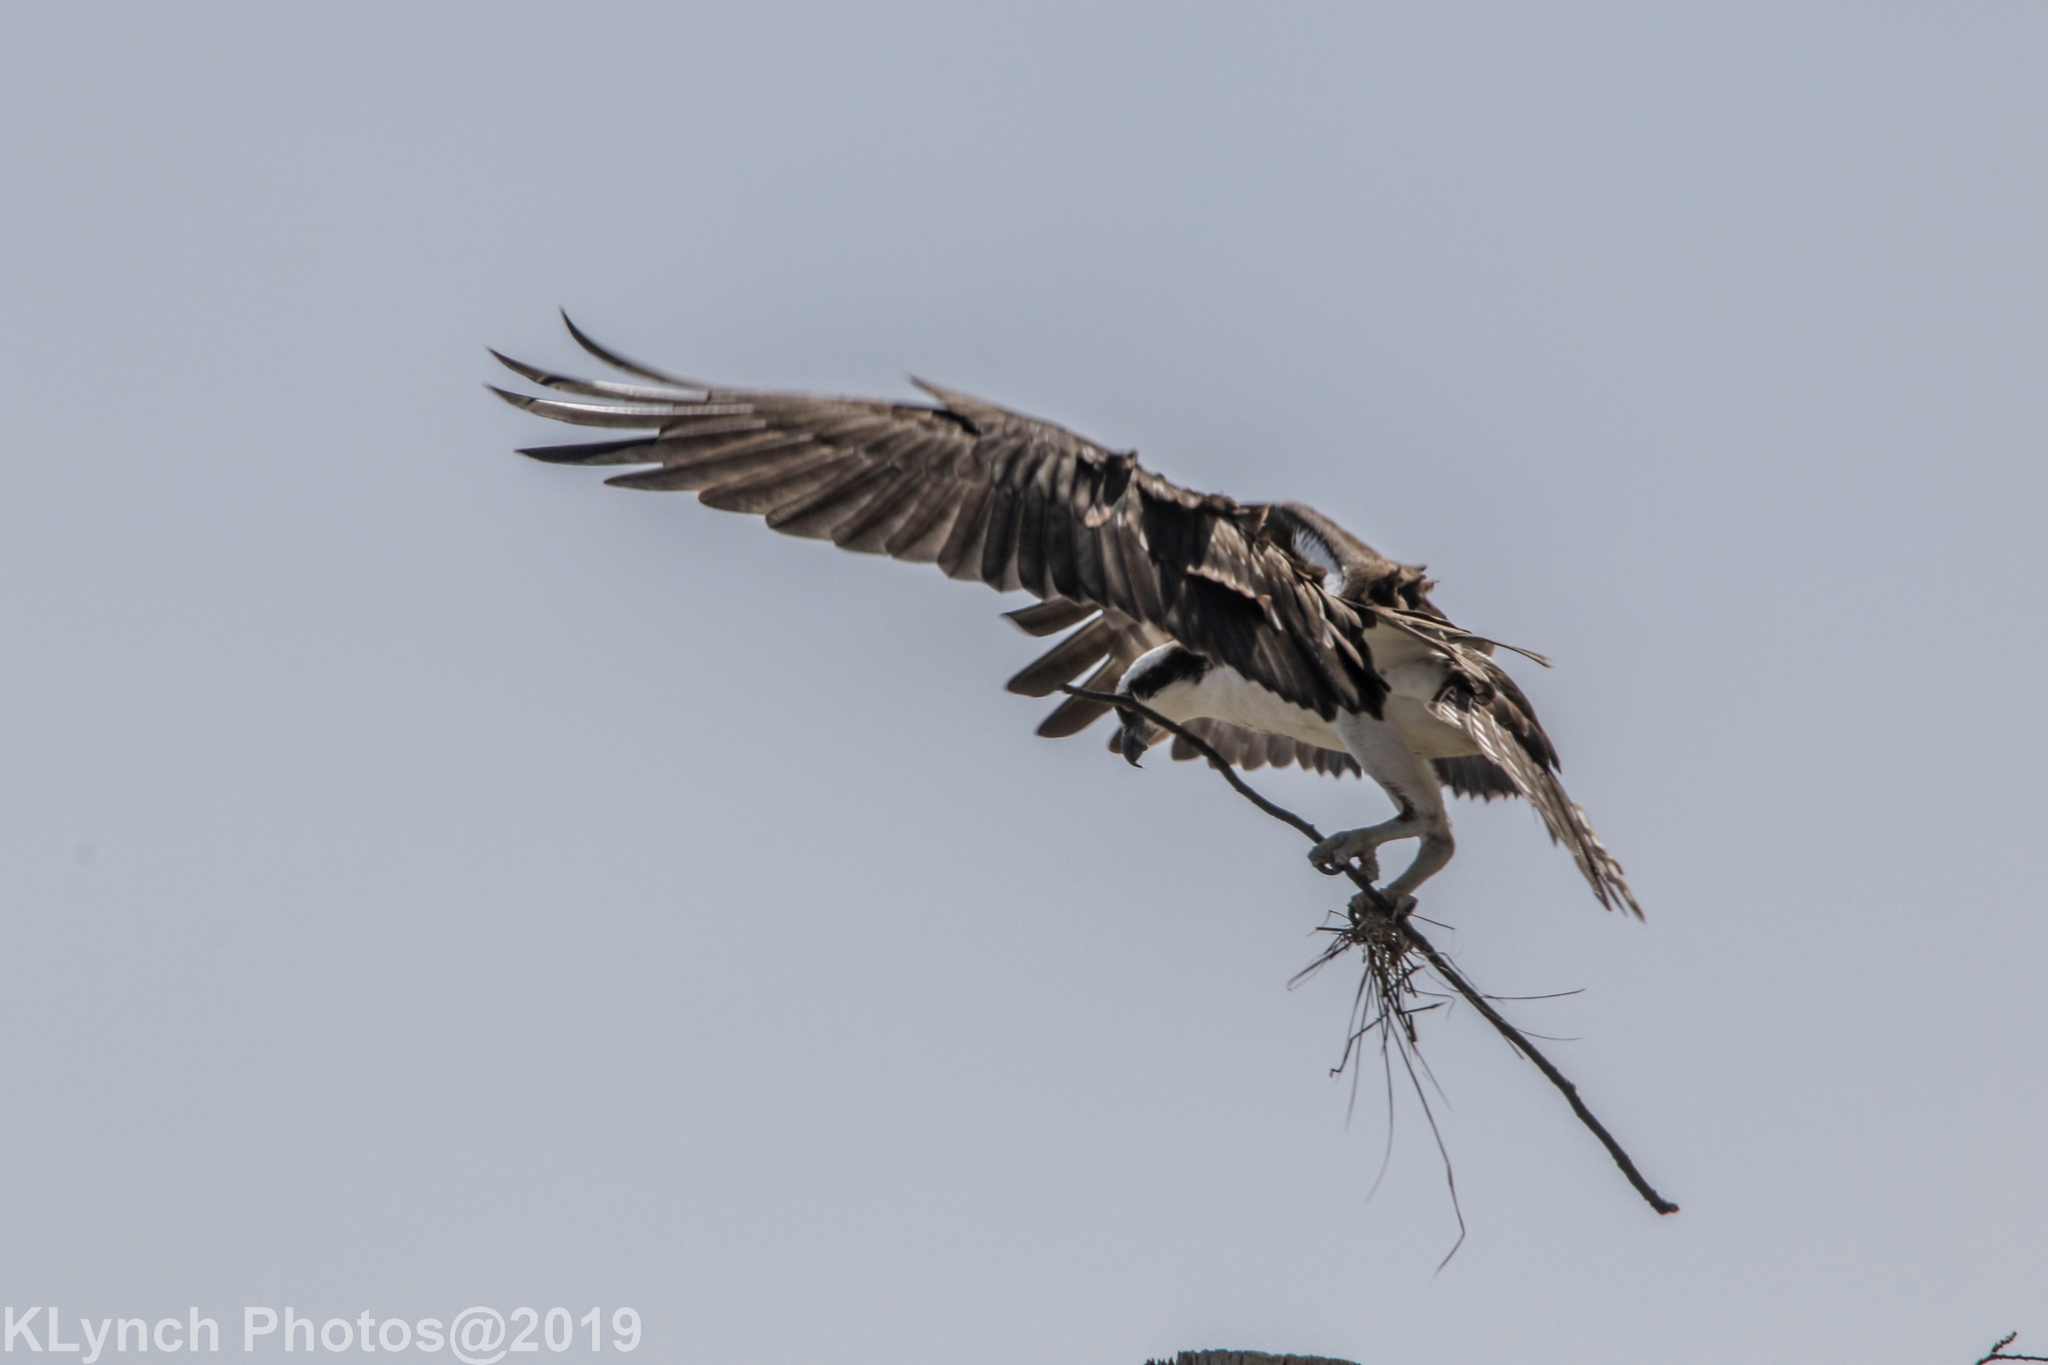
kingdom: Animalia
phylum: Chordata
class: Aves
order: Accipitriformes
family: Pandionidae
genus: Pandion
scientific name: Pandion haliaetus
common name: Osprey
